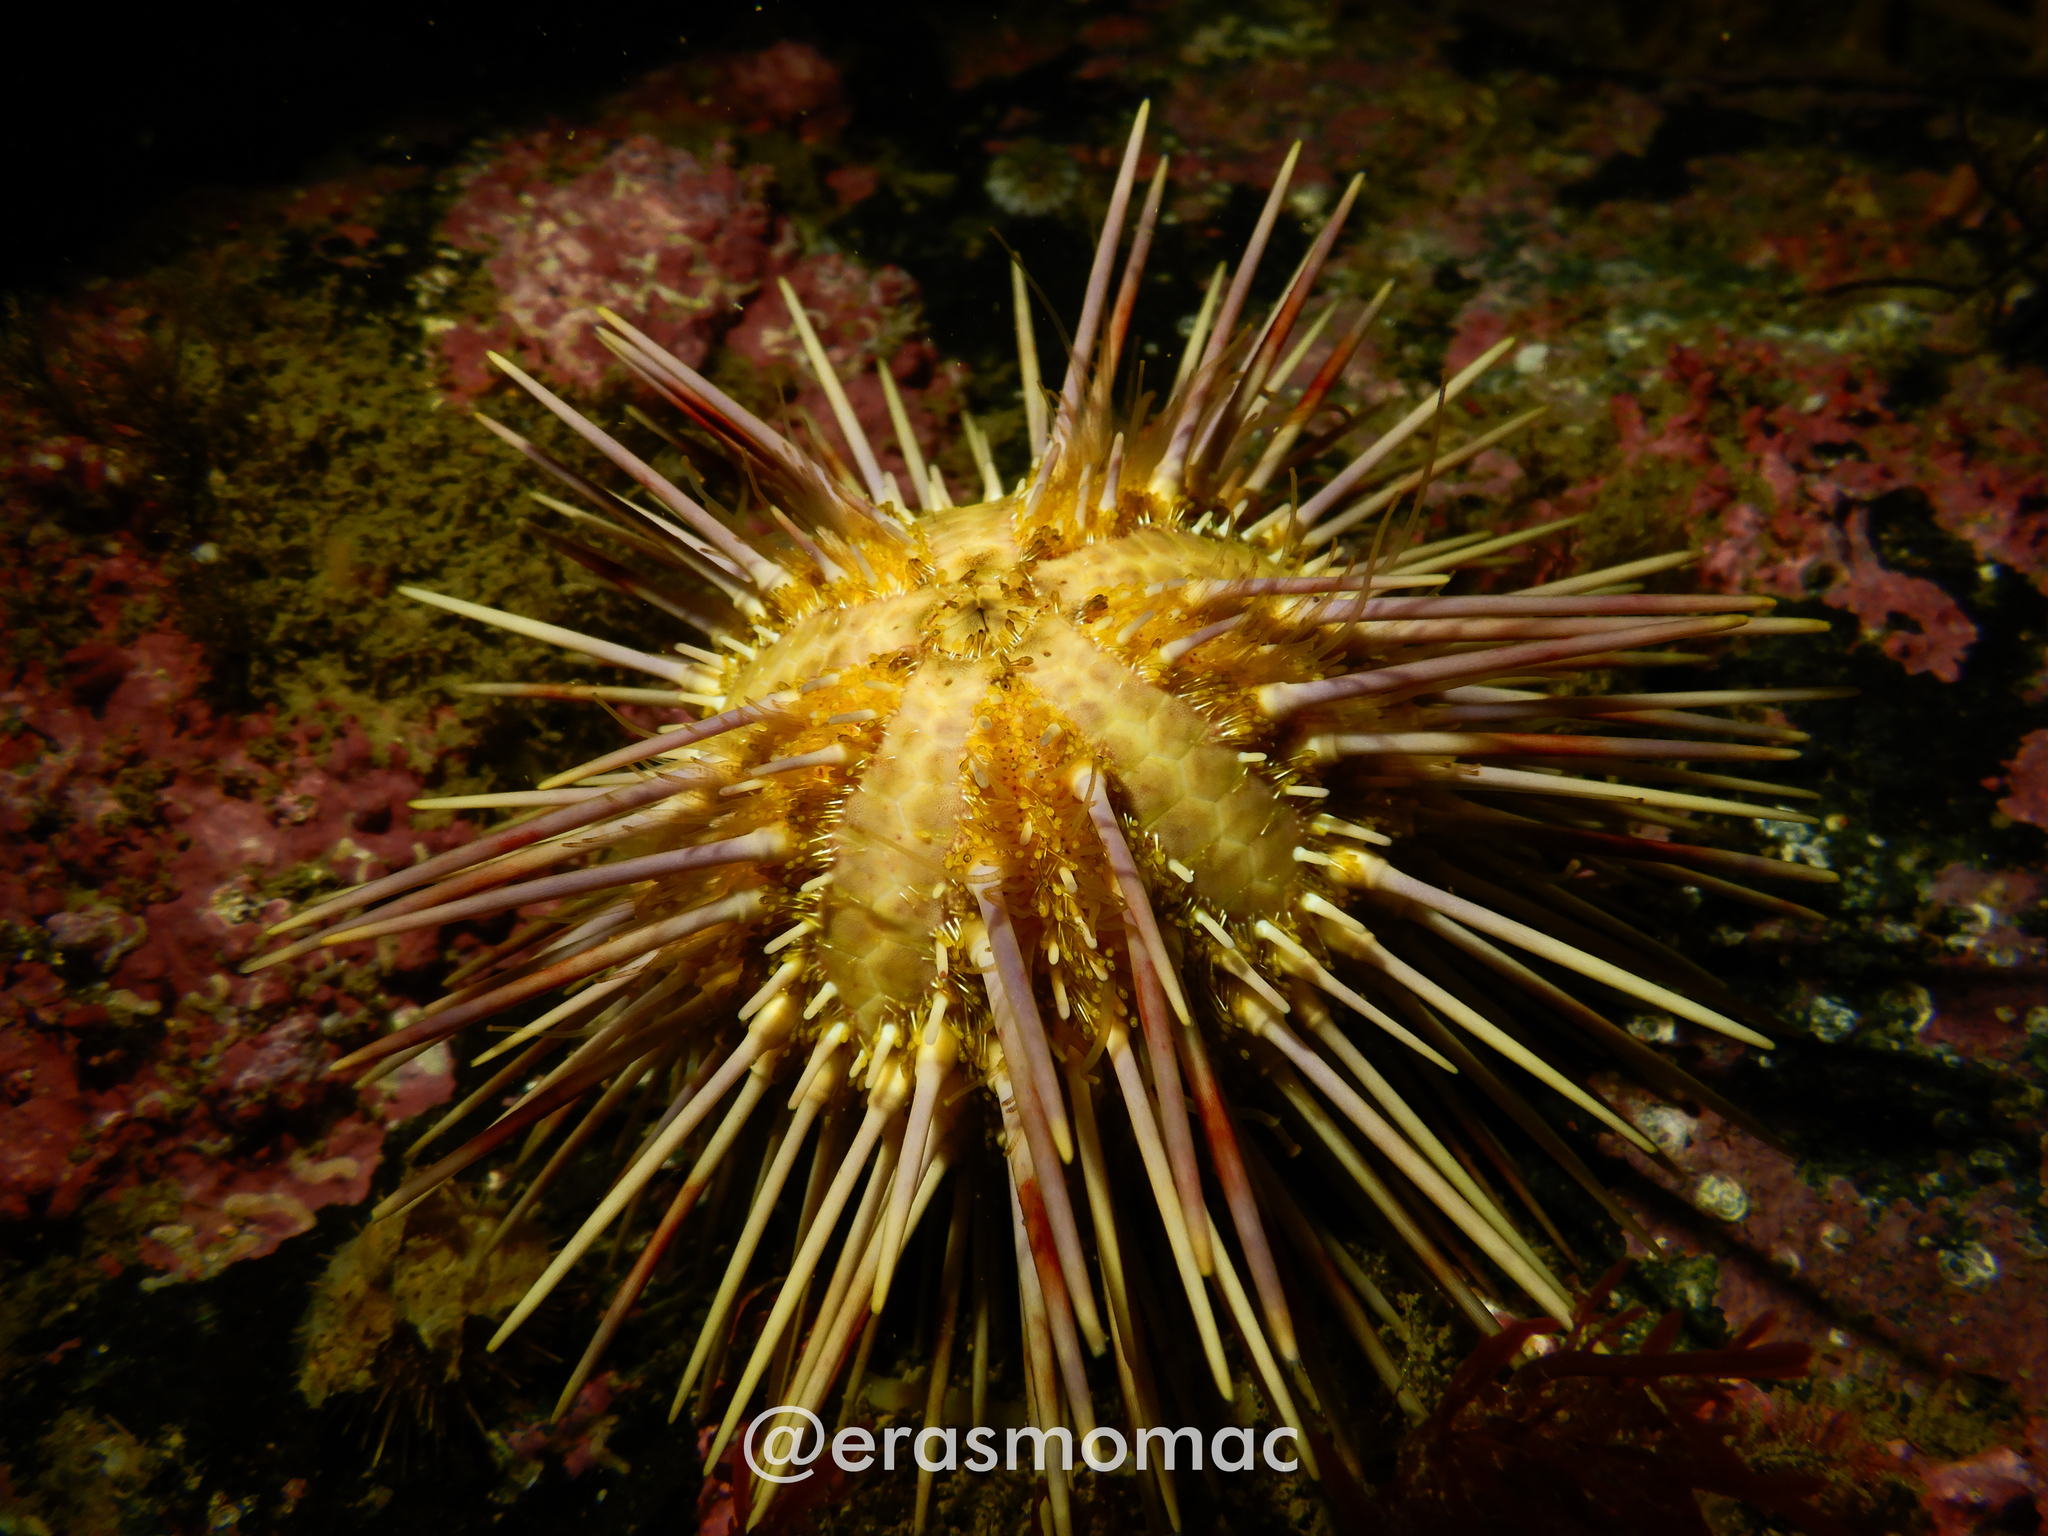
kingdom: Animalia
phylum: Echinodermata
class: Echinoidea
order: Arbacioida
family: Arbaciidae
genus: Arbacia
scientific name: Arbacia dufresnii
